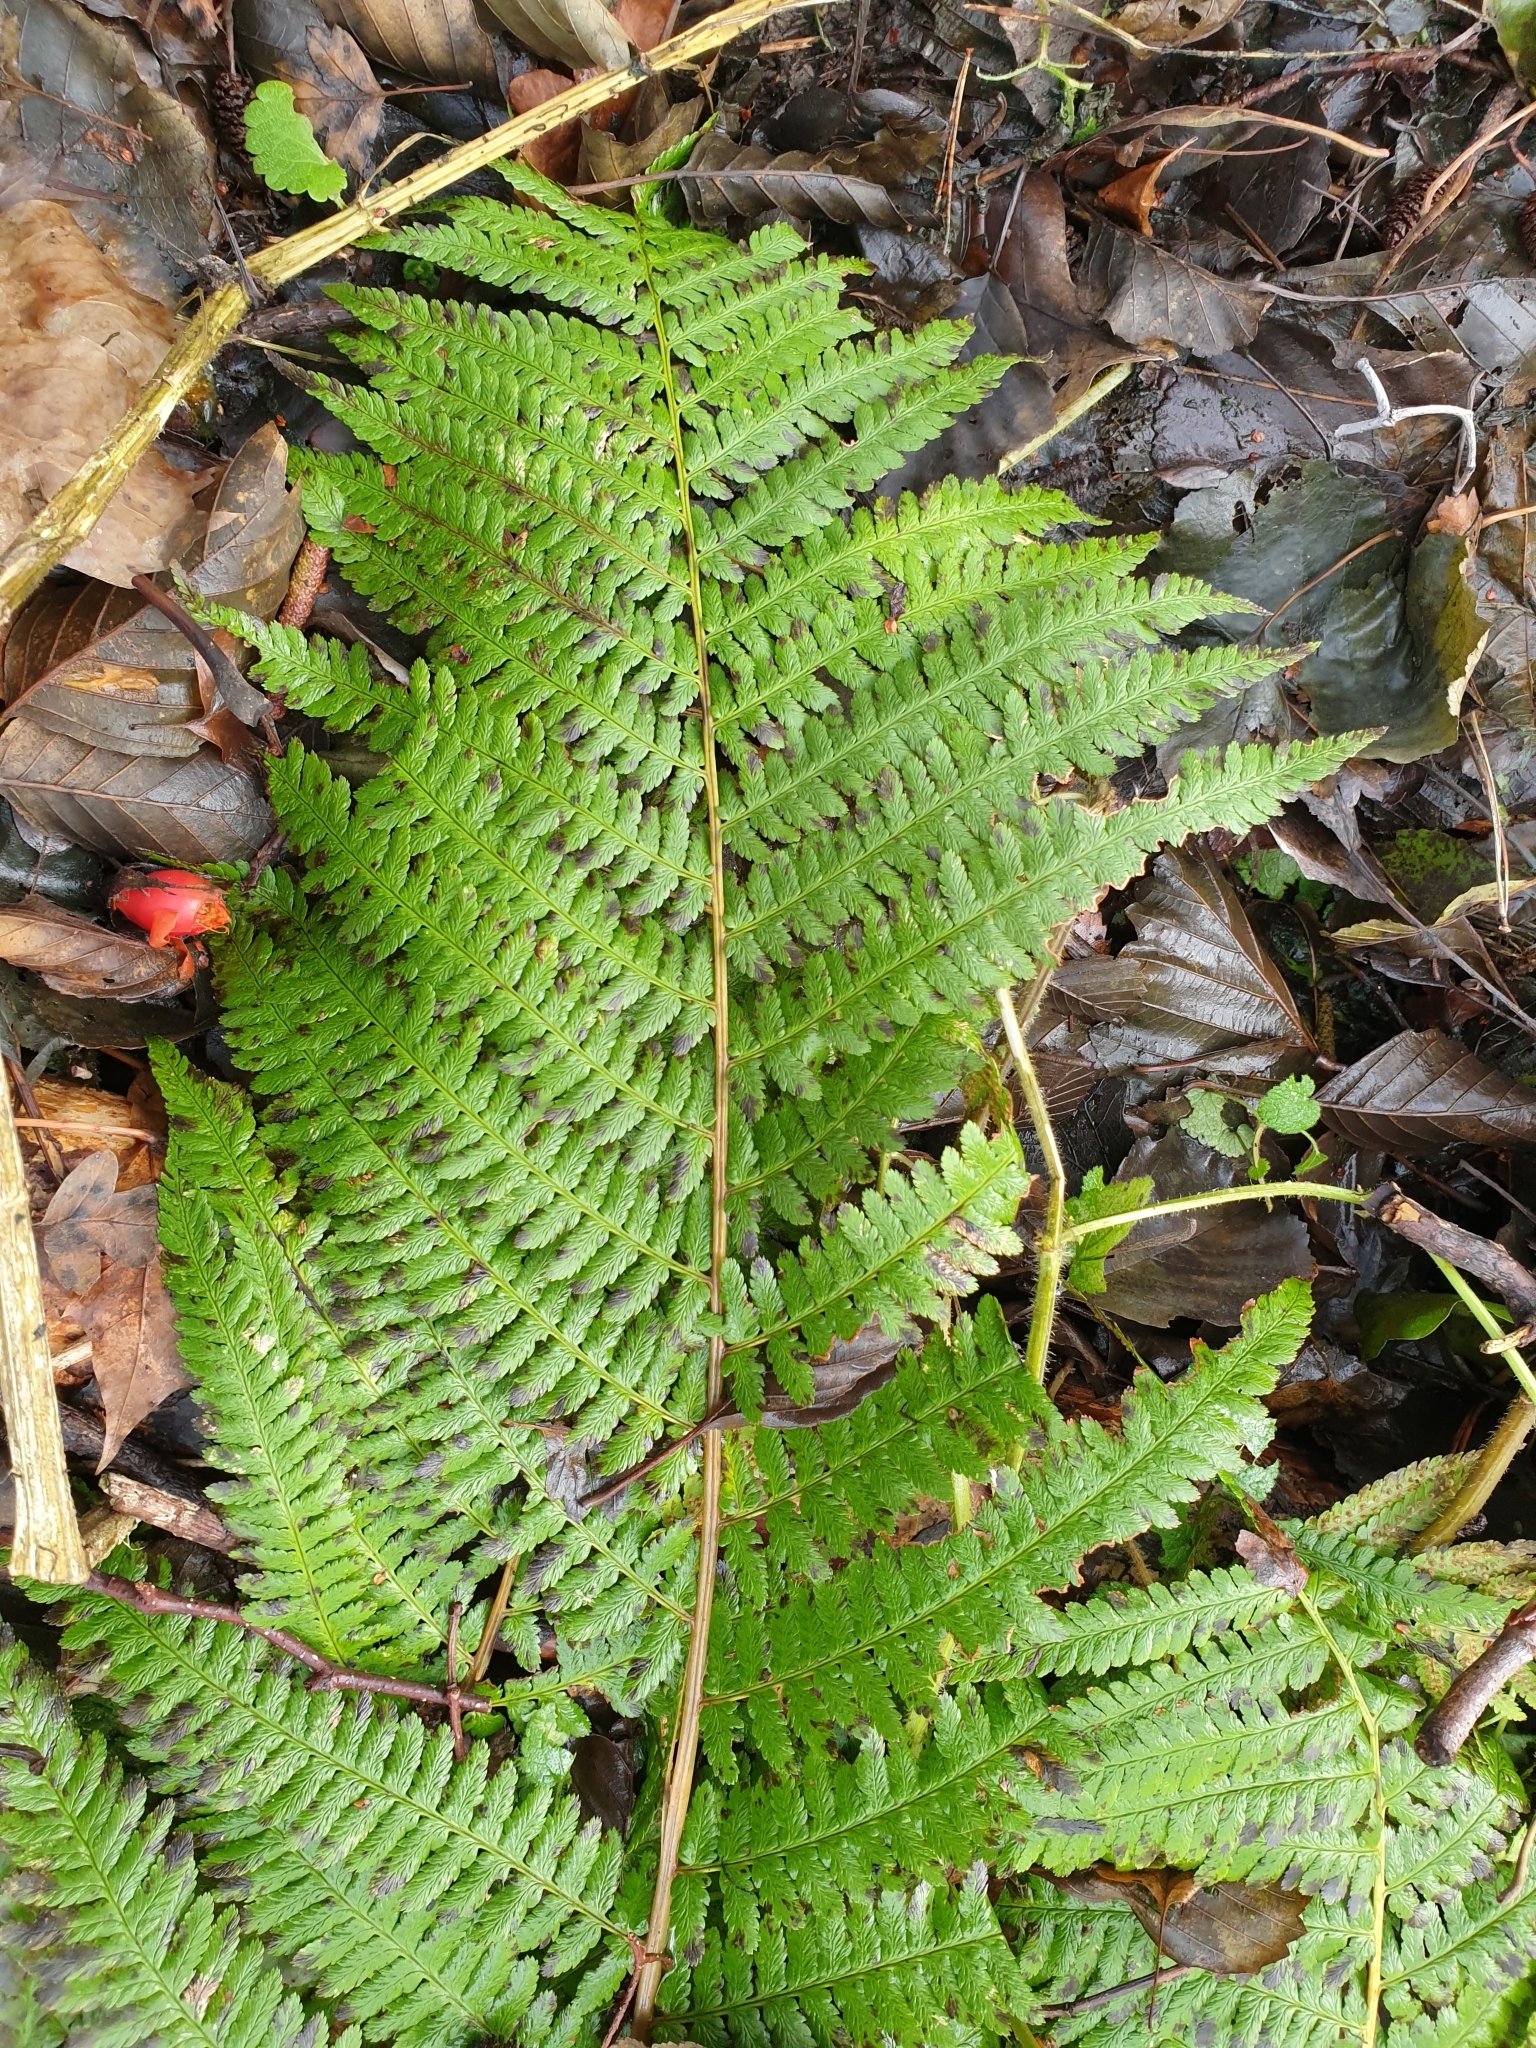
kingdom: Plantae
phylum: Tracheophyta
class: Polypodiopsida
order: Polypodiales
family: Dryopteridaceae
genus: Dryopteris
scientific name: Dryopteris filix-mas
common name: Male fern
